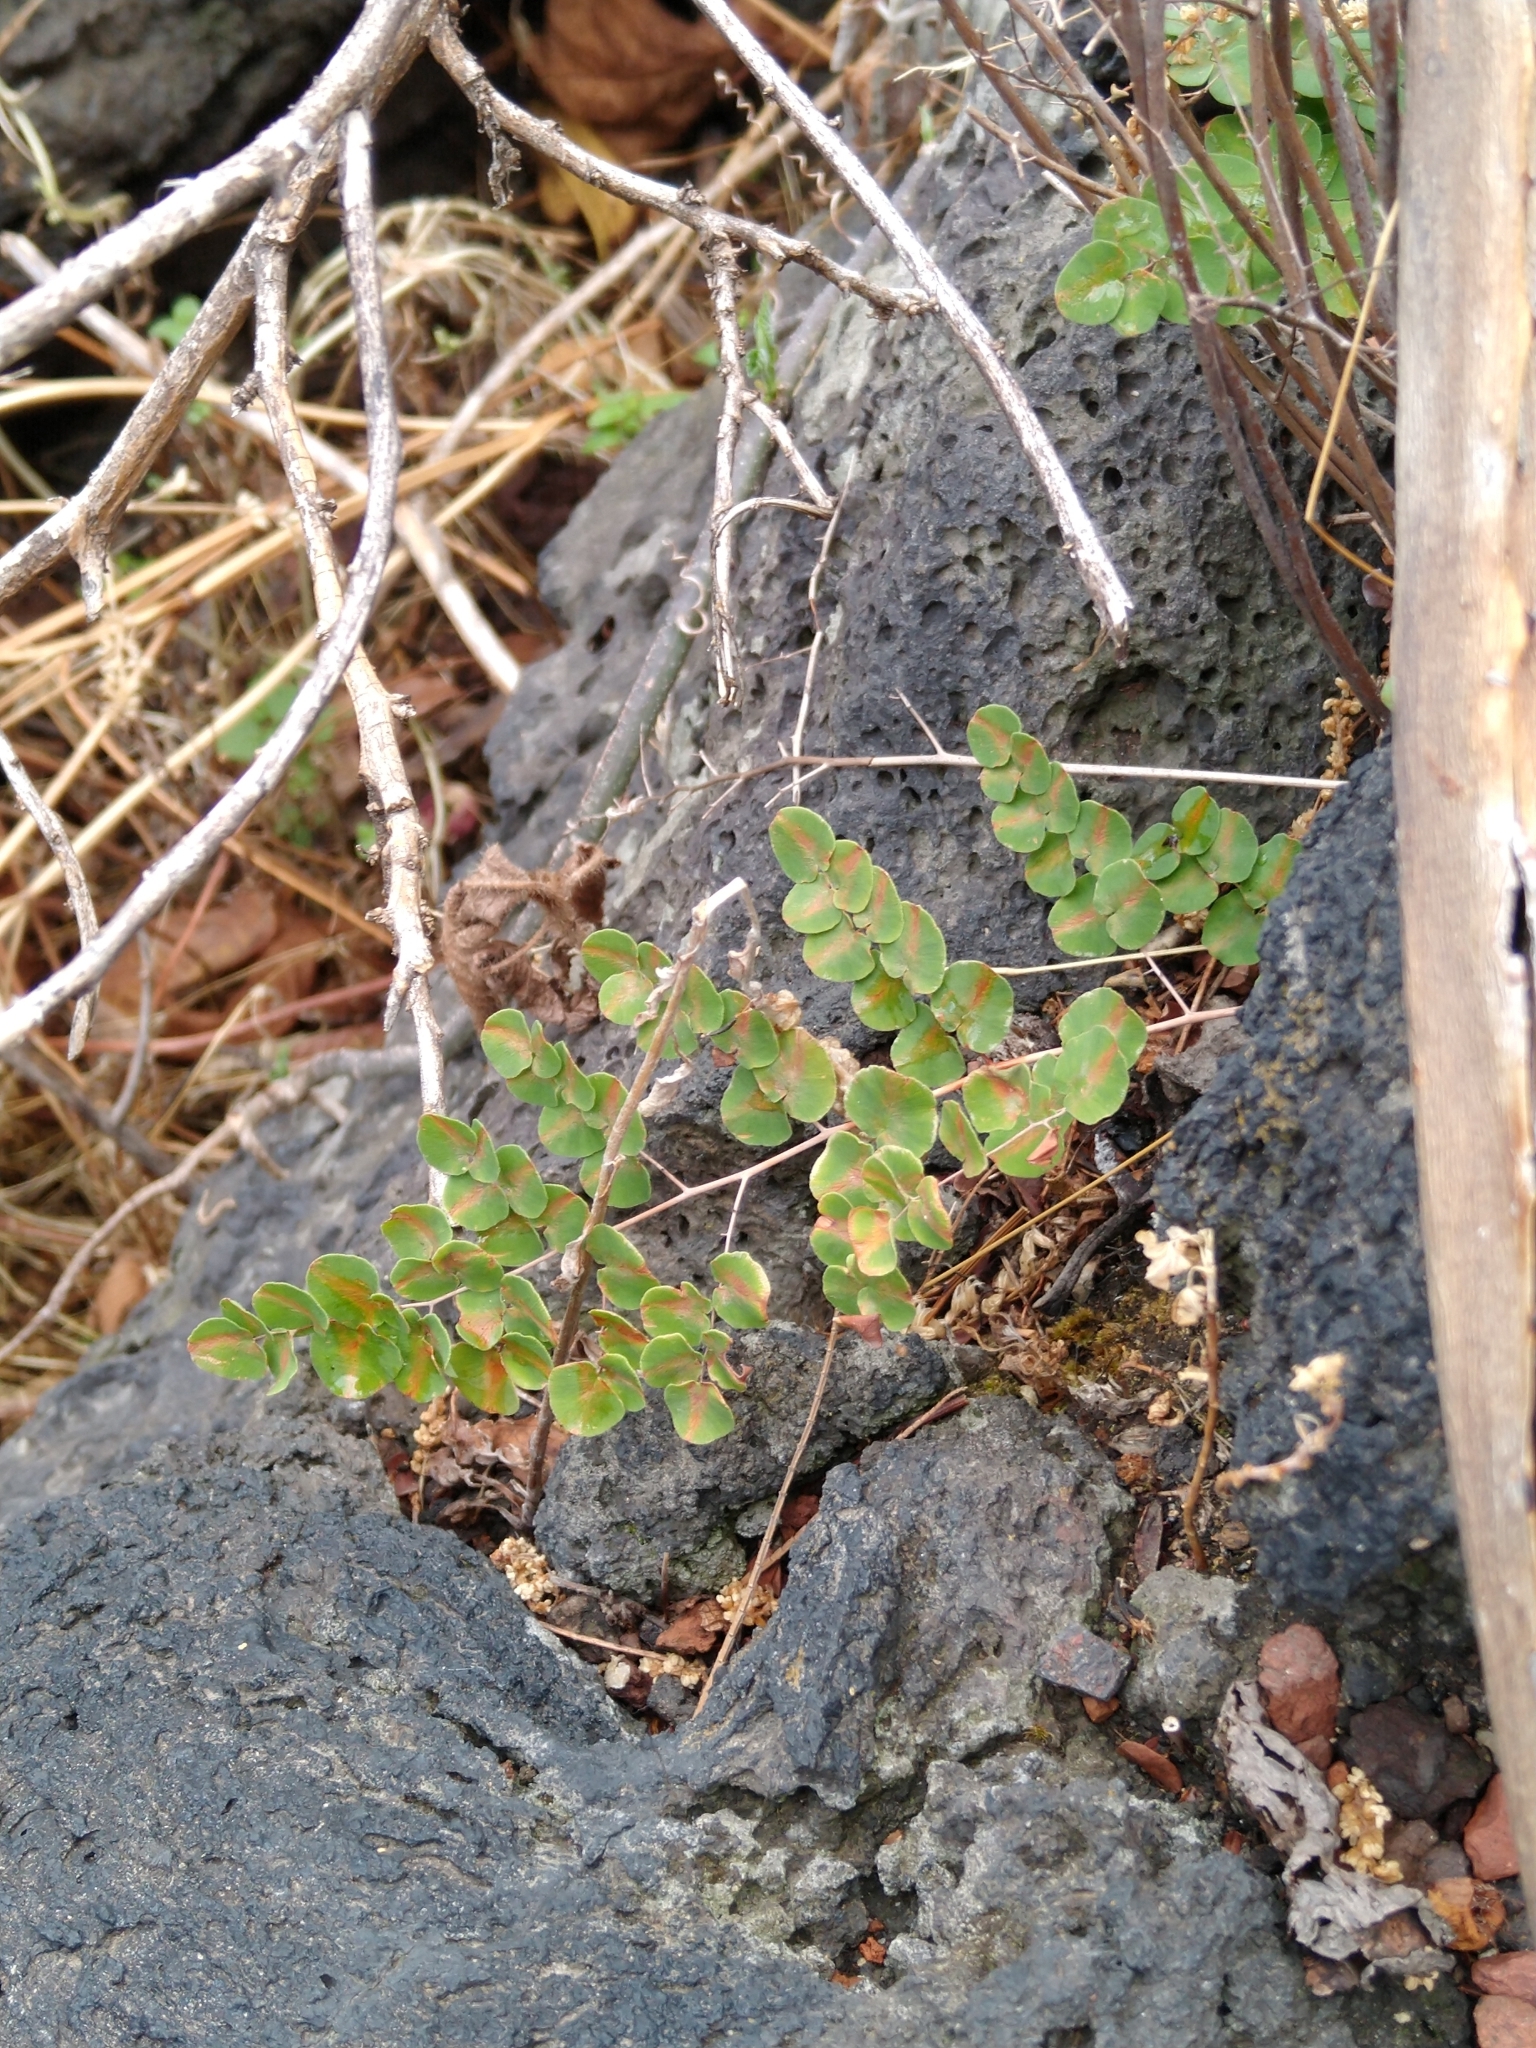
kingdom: Plantae
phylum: Tracheophyta
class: Polypodiopsida
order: Polypodiales
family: Pteridaceae
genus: Pellaea
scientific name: Pellaea cordifolia
